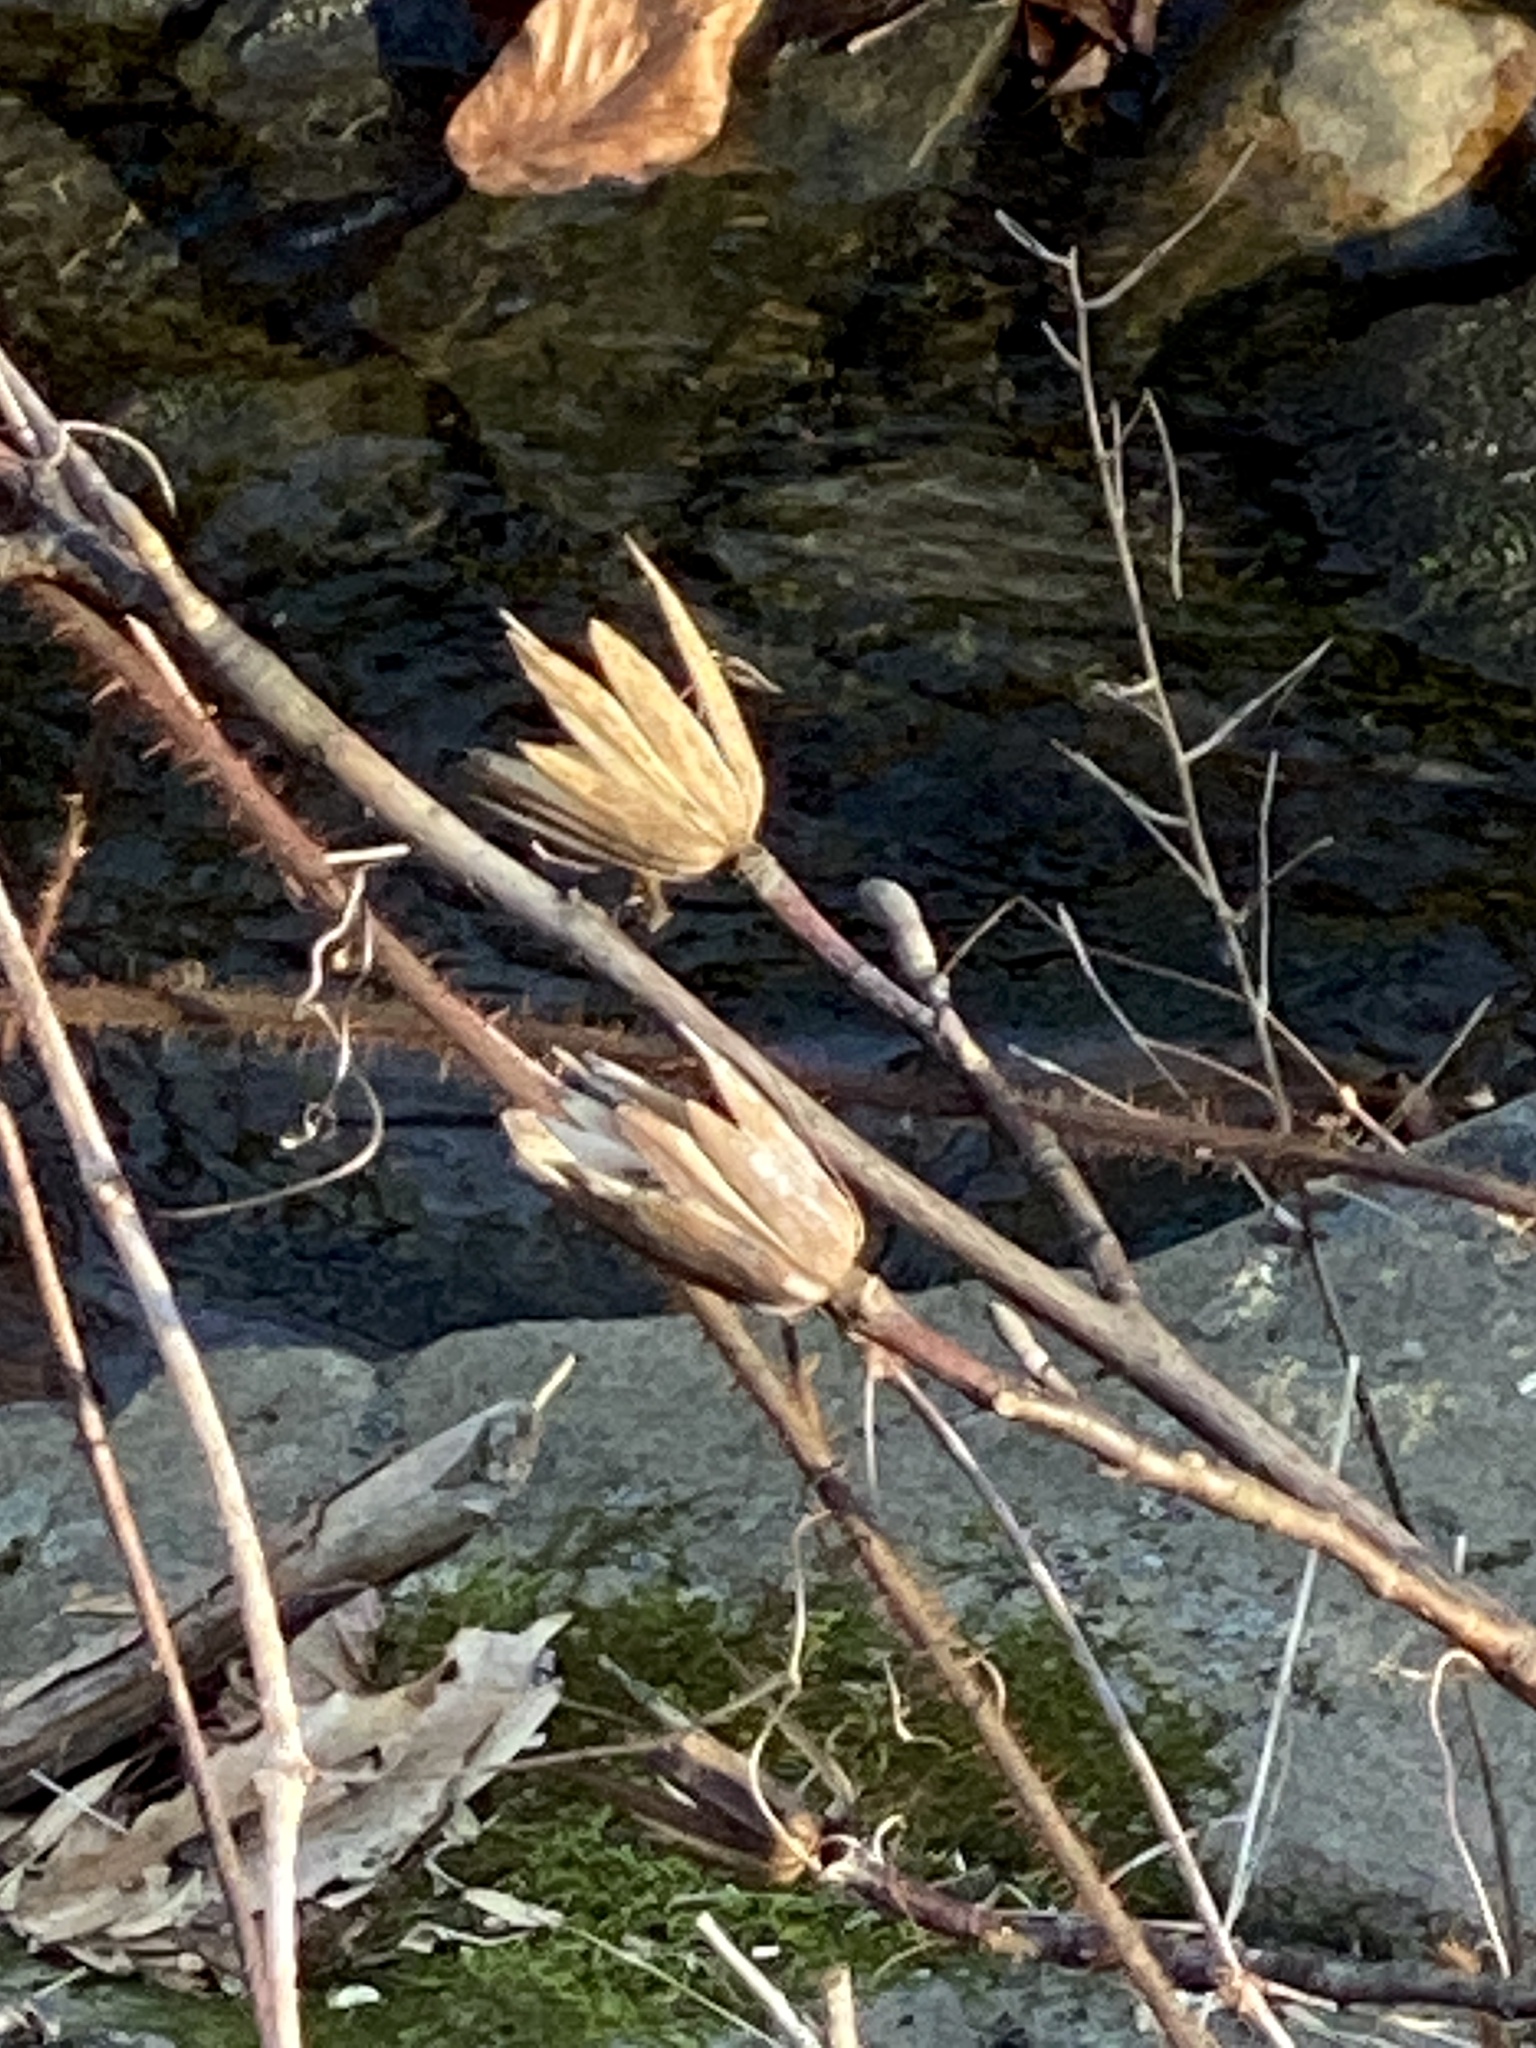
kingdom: Plantae
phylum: Tracheophyta
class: Magnoliopsida
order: Magnoliales
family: Magnoliaceae
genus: Liriodendron
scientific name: Liriodendron tulipifera
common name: Tulip tree
